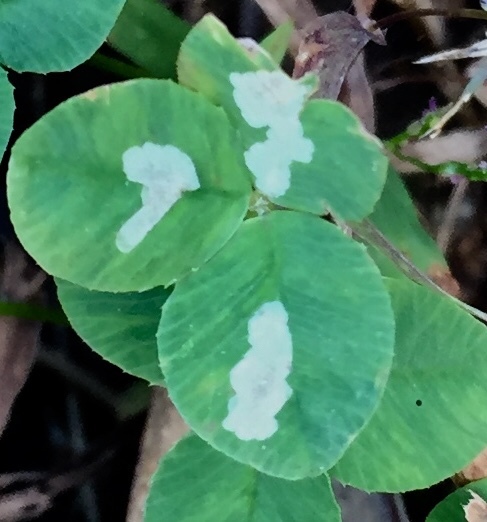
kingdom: Animalia
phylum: Arthropoda
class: Insecta
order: Lepidoptera
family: Gracillariidae
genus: Porphyrosela
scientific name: Porphyrosela minuta
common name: Leaf miner moth
